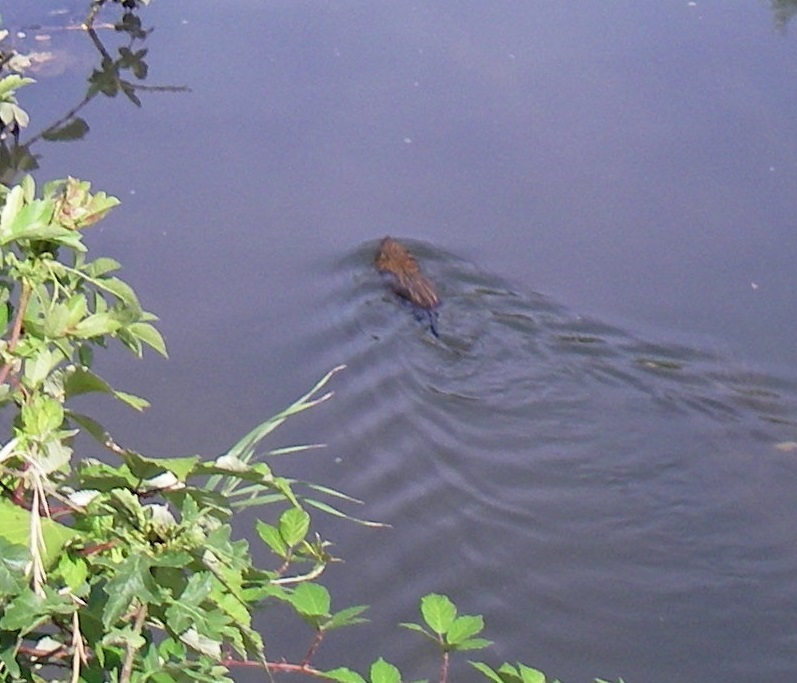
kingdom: Animalia
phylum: Chordata
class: Mammalia
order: Rodentia
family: Cricetidae
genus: Ondatra
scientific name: Ondatra zibethicus
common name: Muskrat
